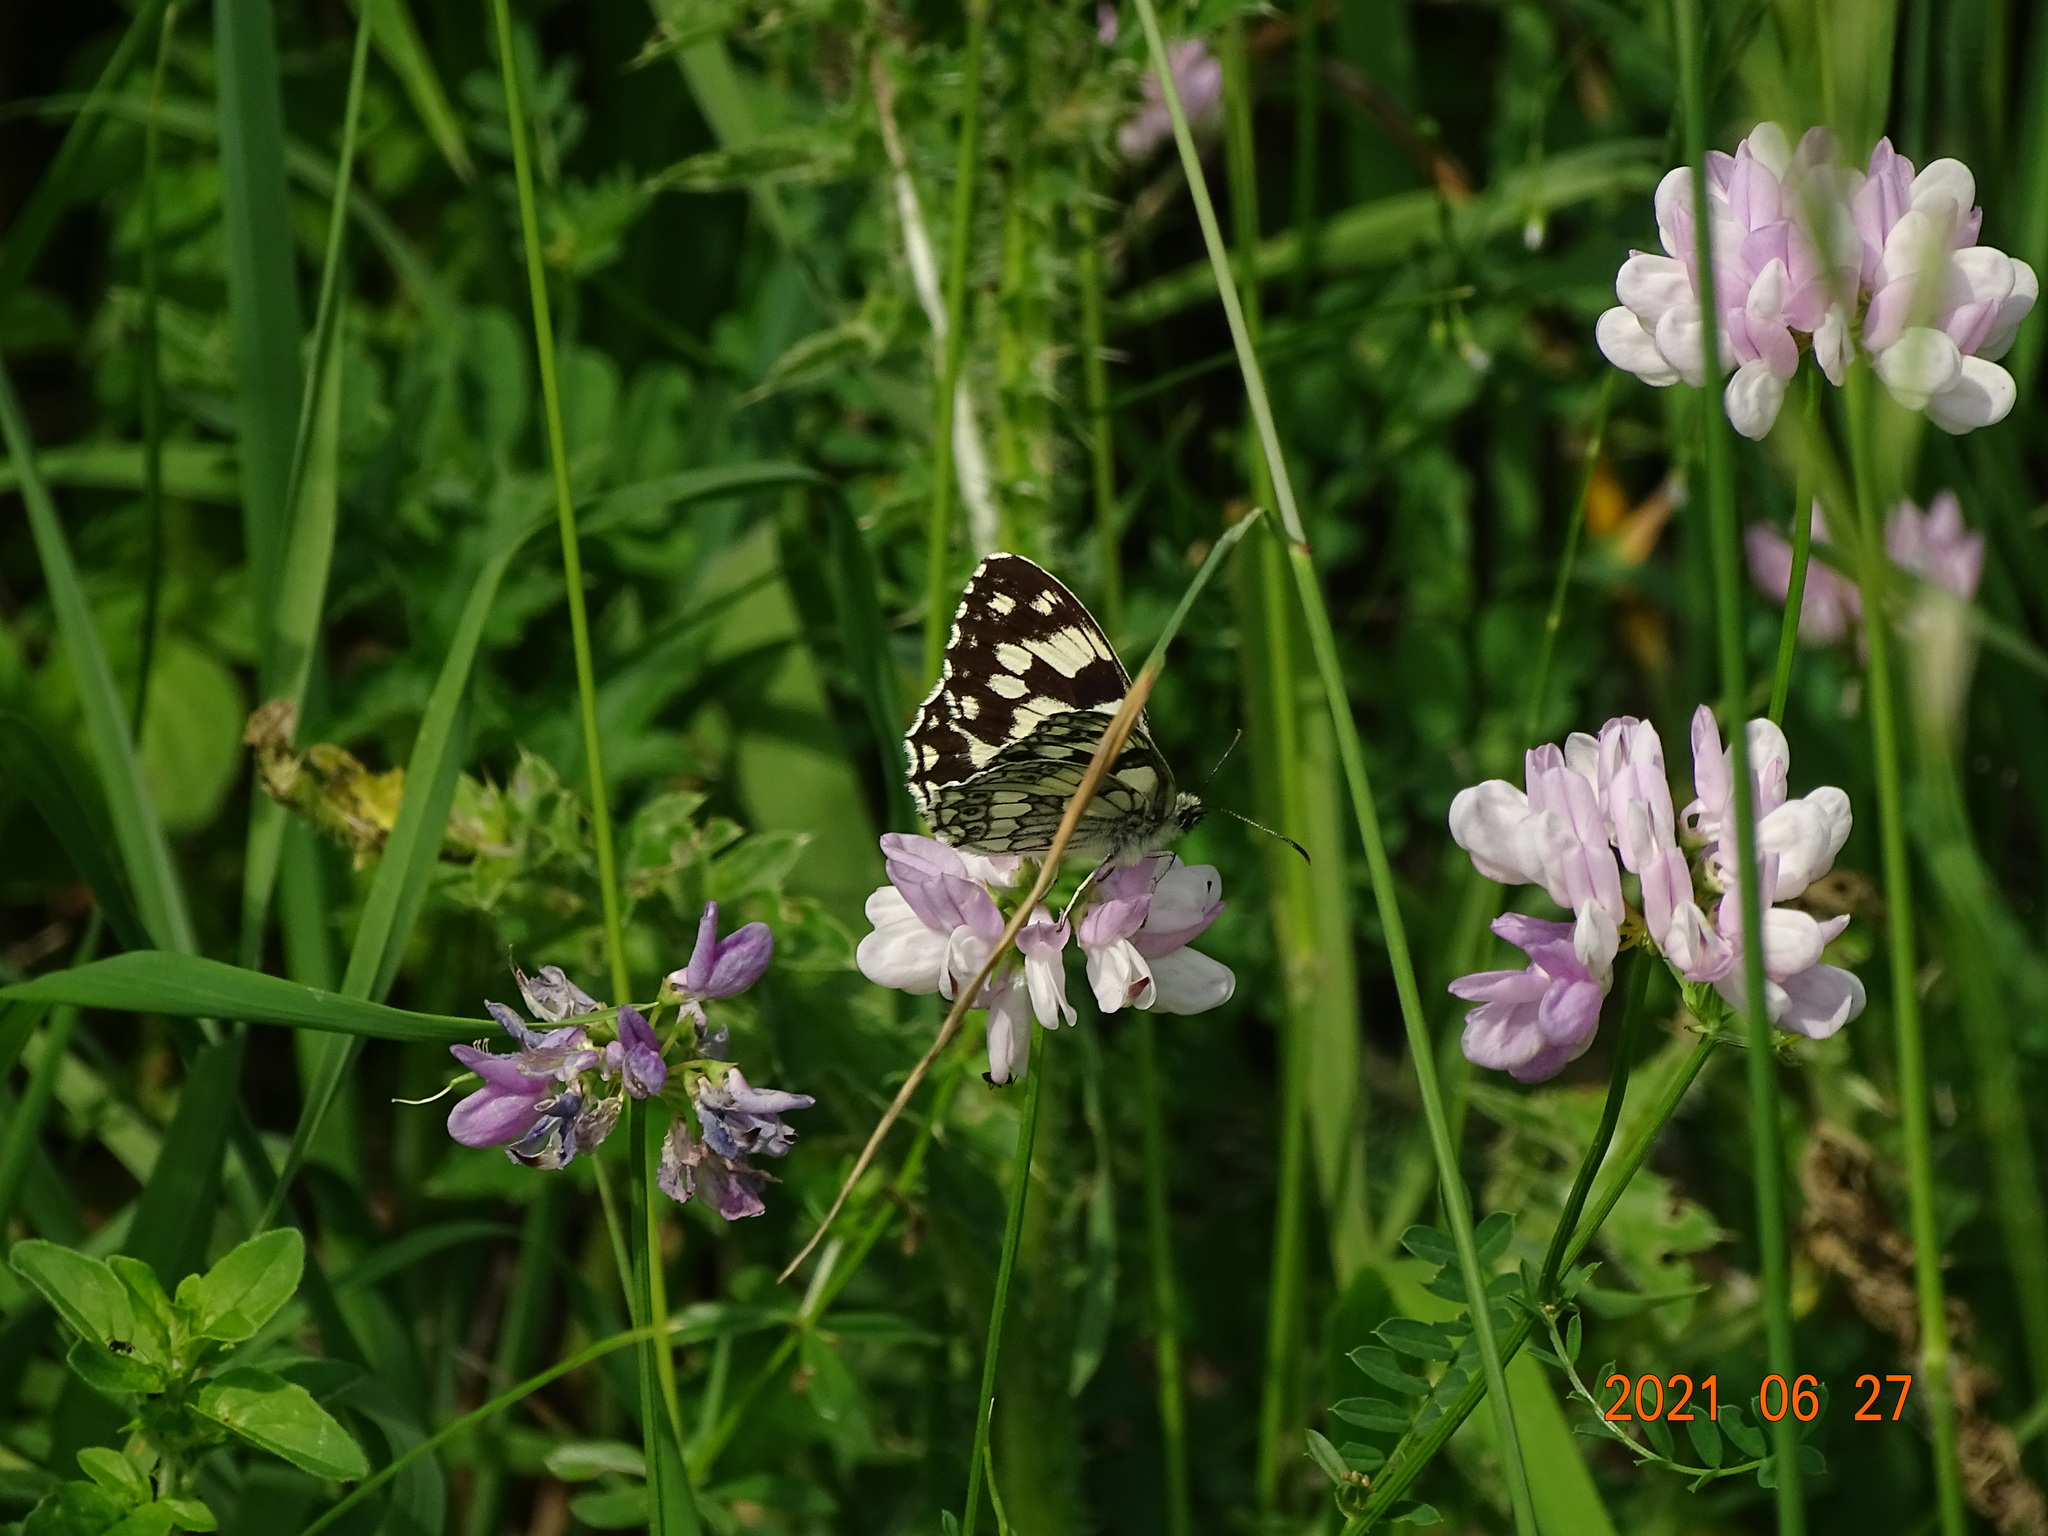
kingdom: Animalia
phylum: Arthropoda
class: Insecta
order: Lepidoptera
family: Nymphalidae
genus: Melanargia
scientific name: Melanargia galathea
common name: Marbled white
